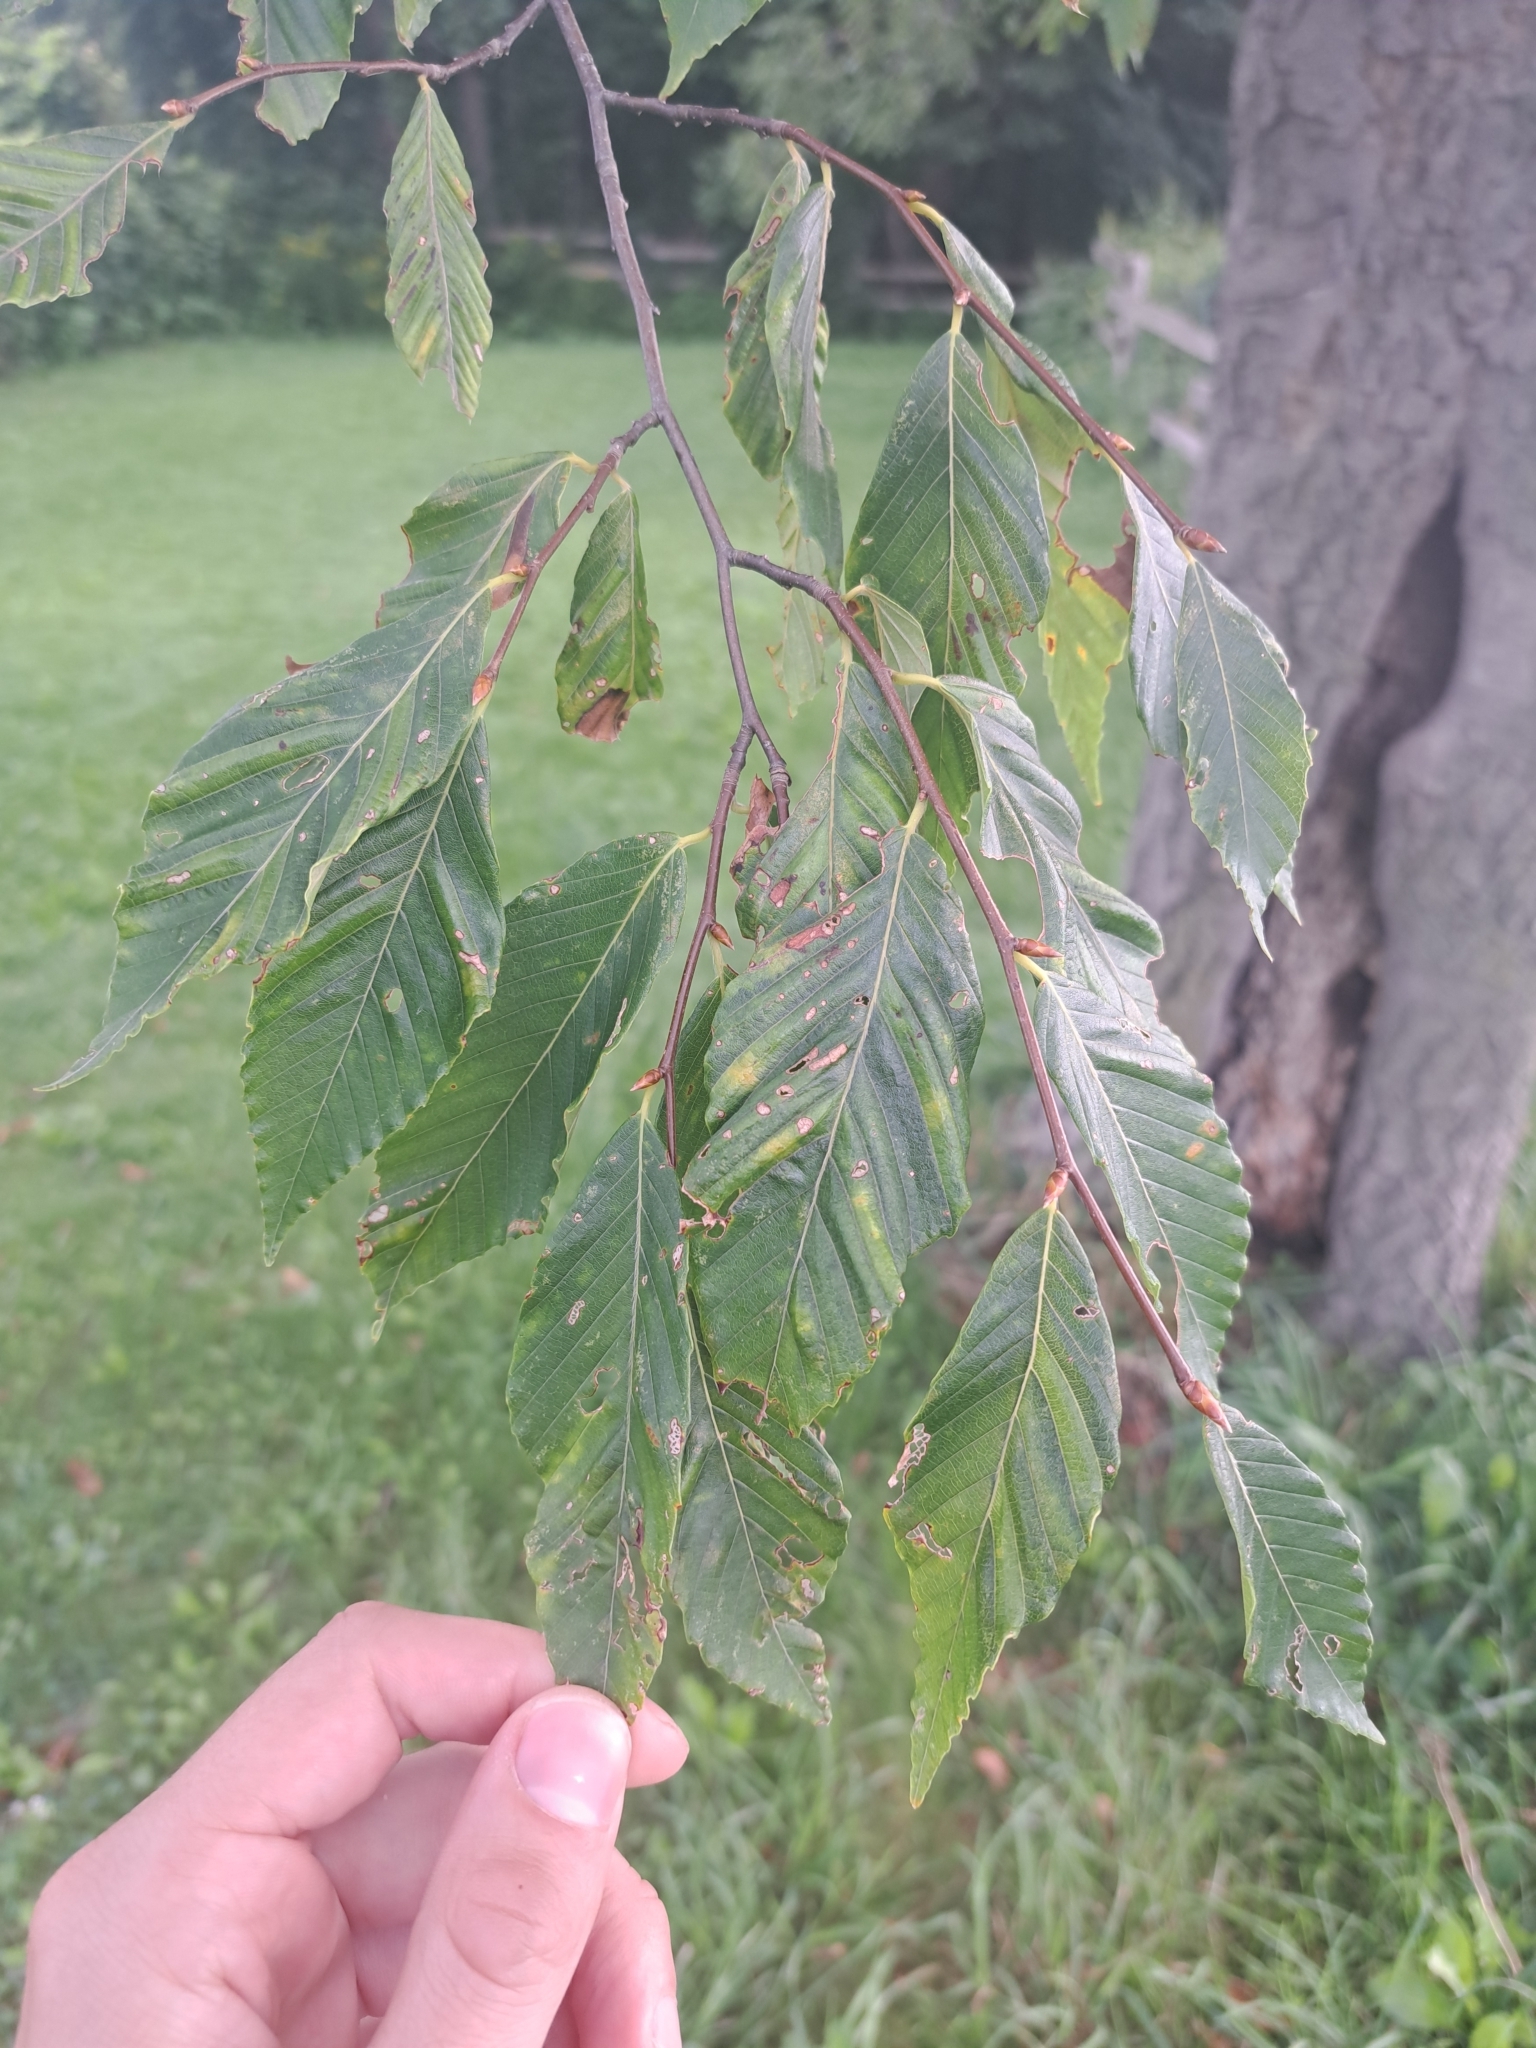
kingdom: Animalia
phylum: Nematoda
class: Chromadorea
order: Rhabditida
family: Anguinidae
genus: Litylenchus
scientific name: Litylenchus crenatae
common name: Beech leaf disease
